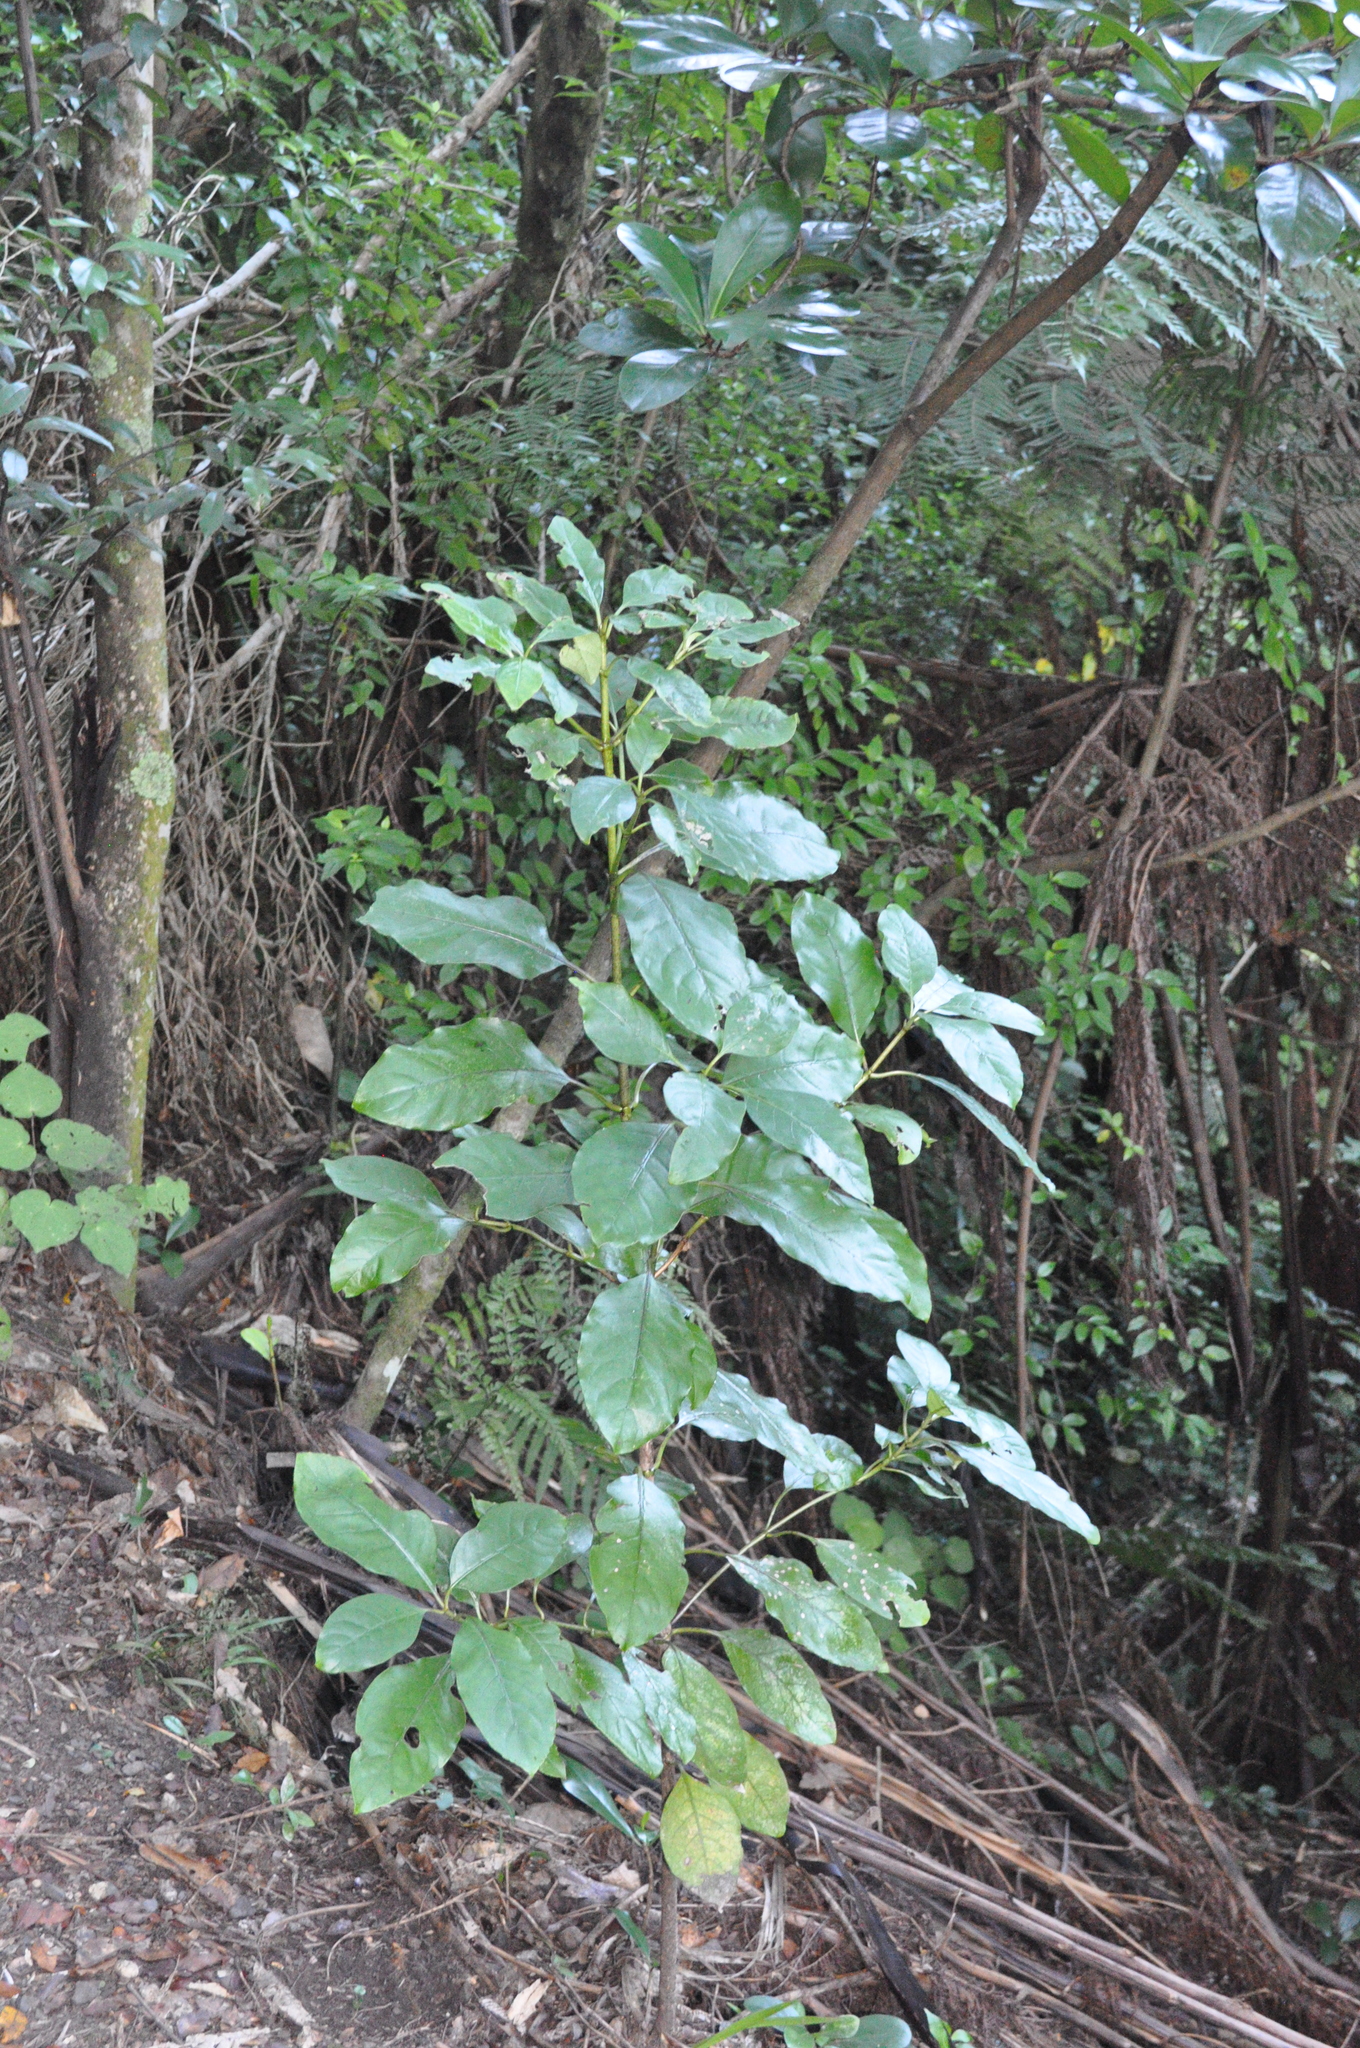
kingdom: Plantae
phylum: Tracheophyta
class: Magnoliopsida
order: Gentianales
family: Rubiaceae
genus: Coprosma
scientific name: Coprosma autumnalis
